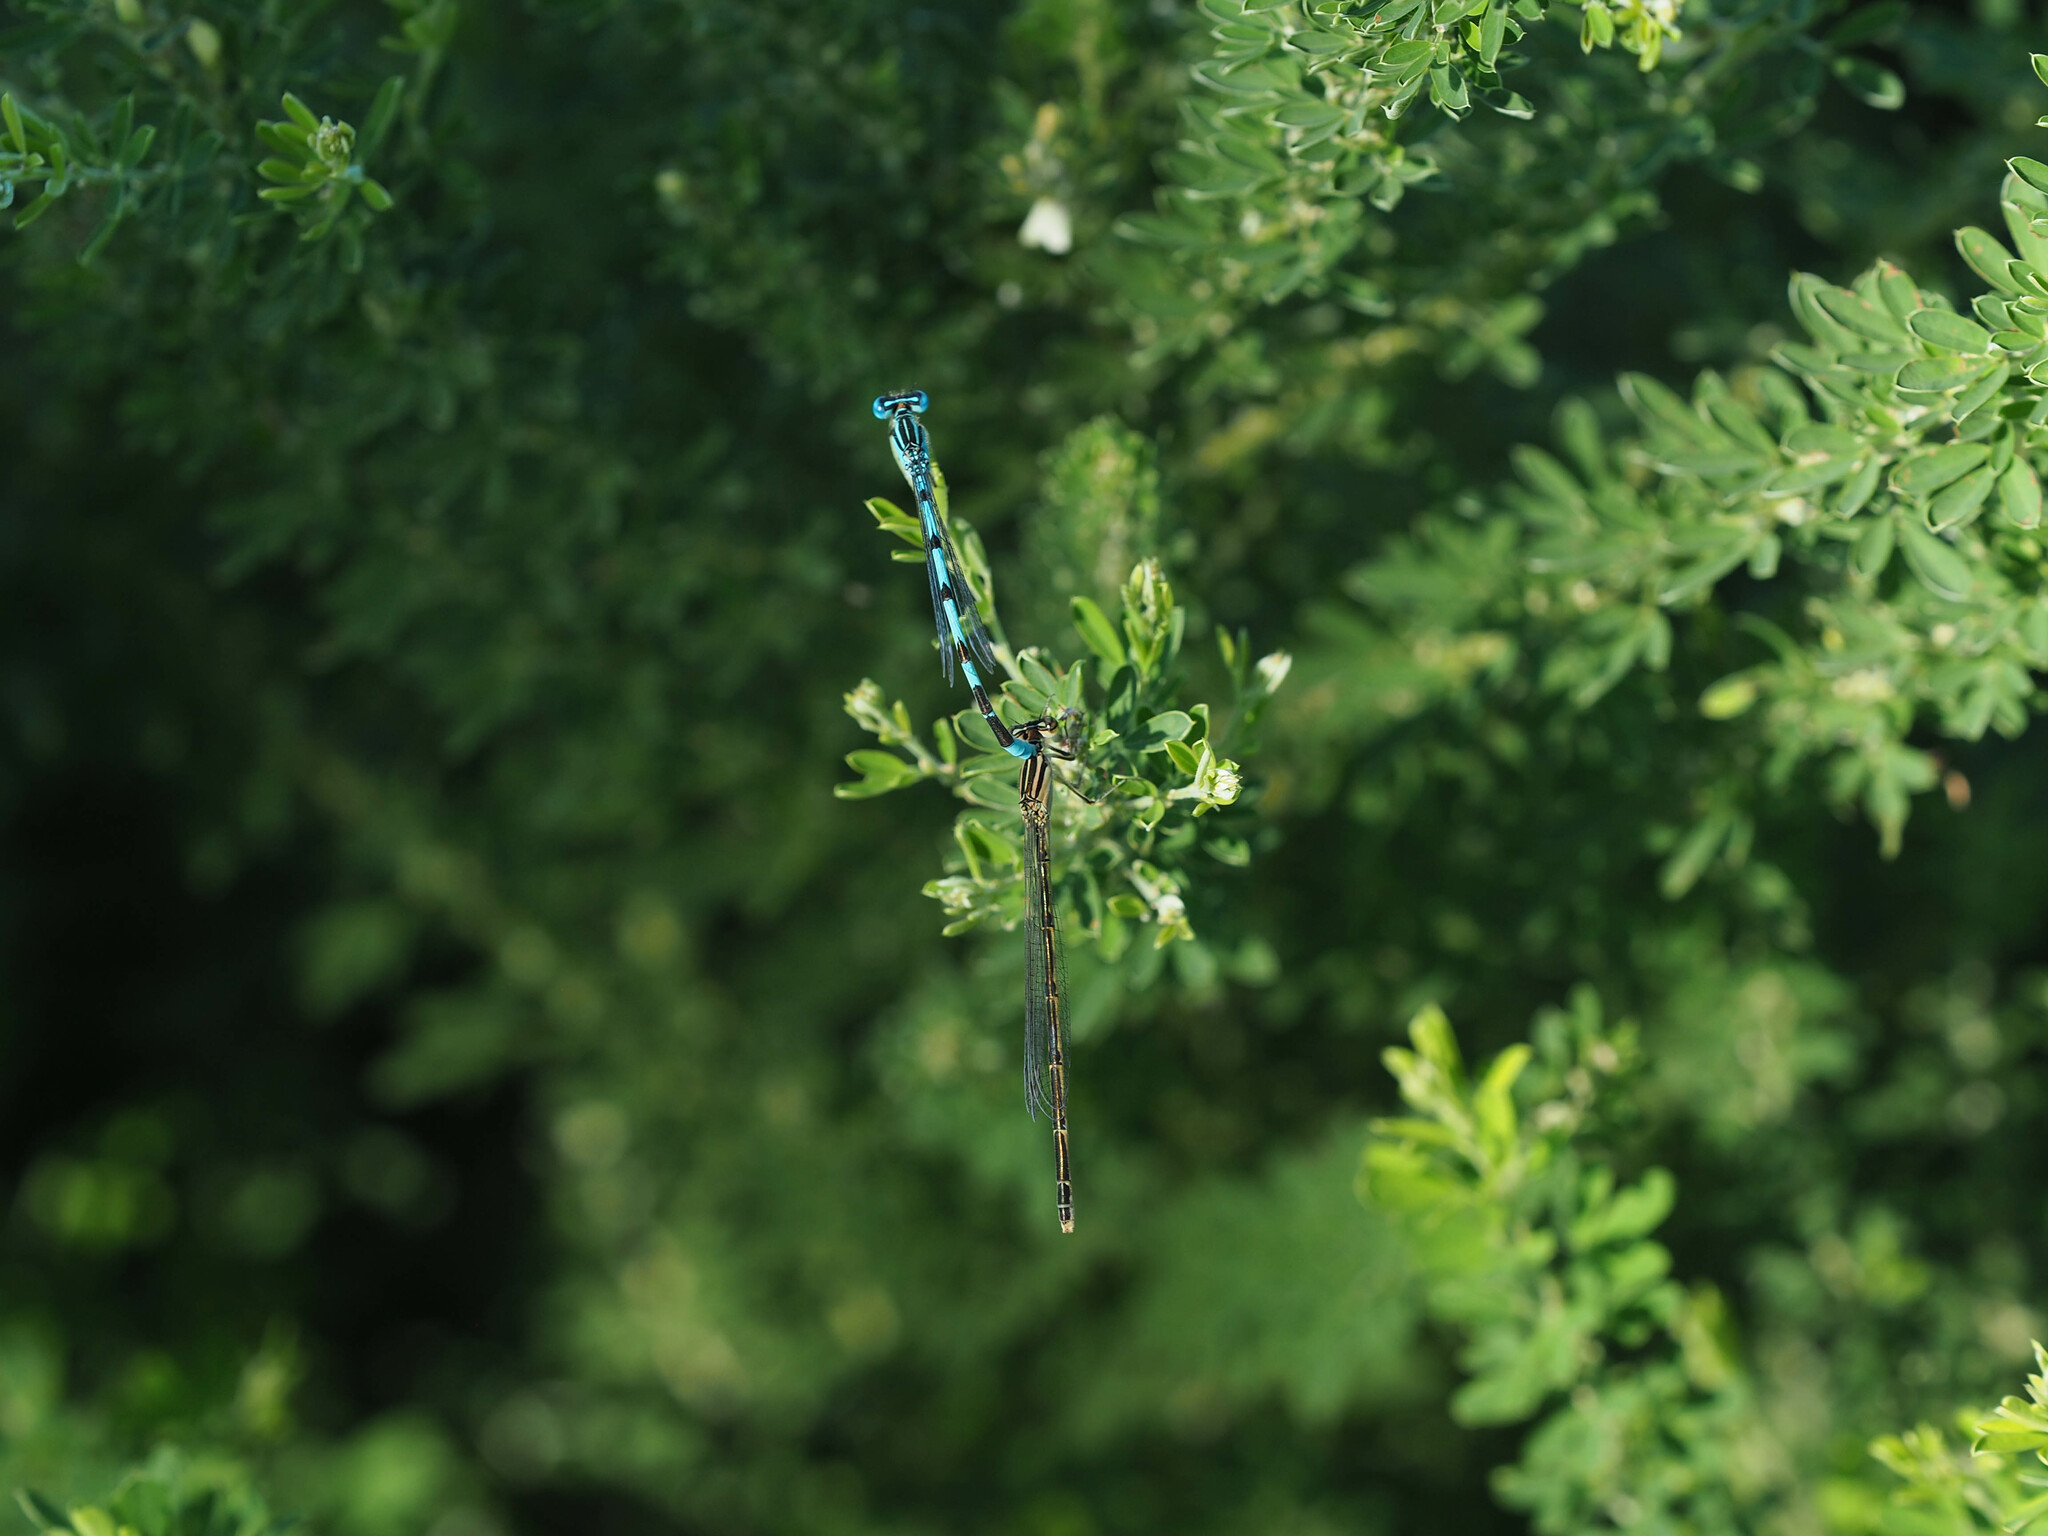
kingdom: Animalia
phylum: Arthropoda
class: Insecta
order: Odonata
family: Coenagrionidae
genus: Enallagma
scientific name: Enallagma durum
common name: Big bluet
